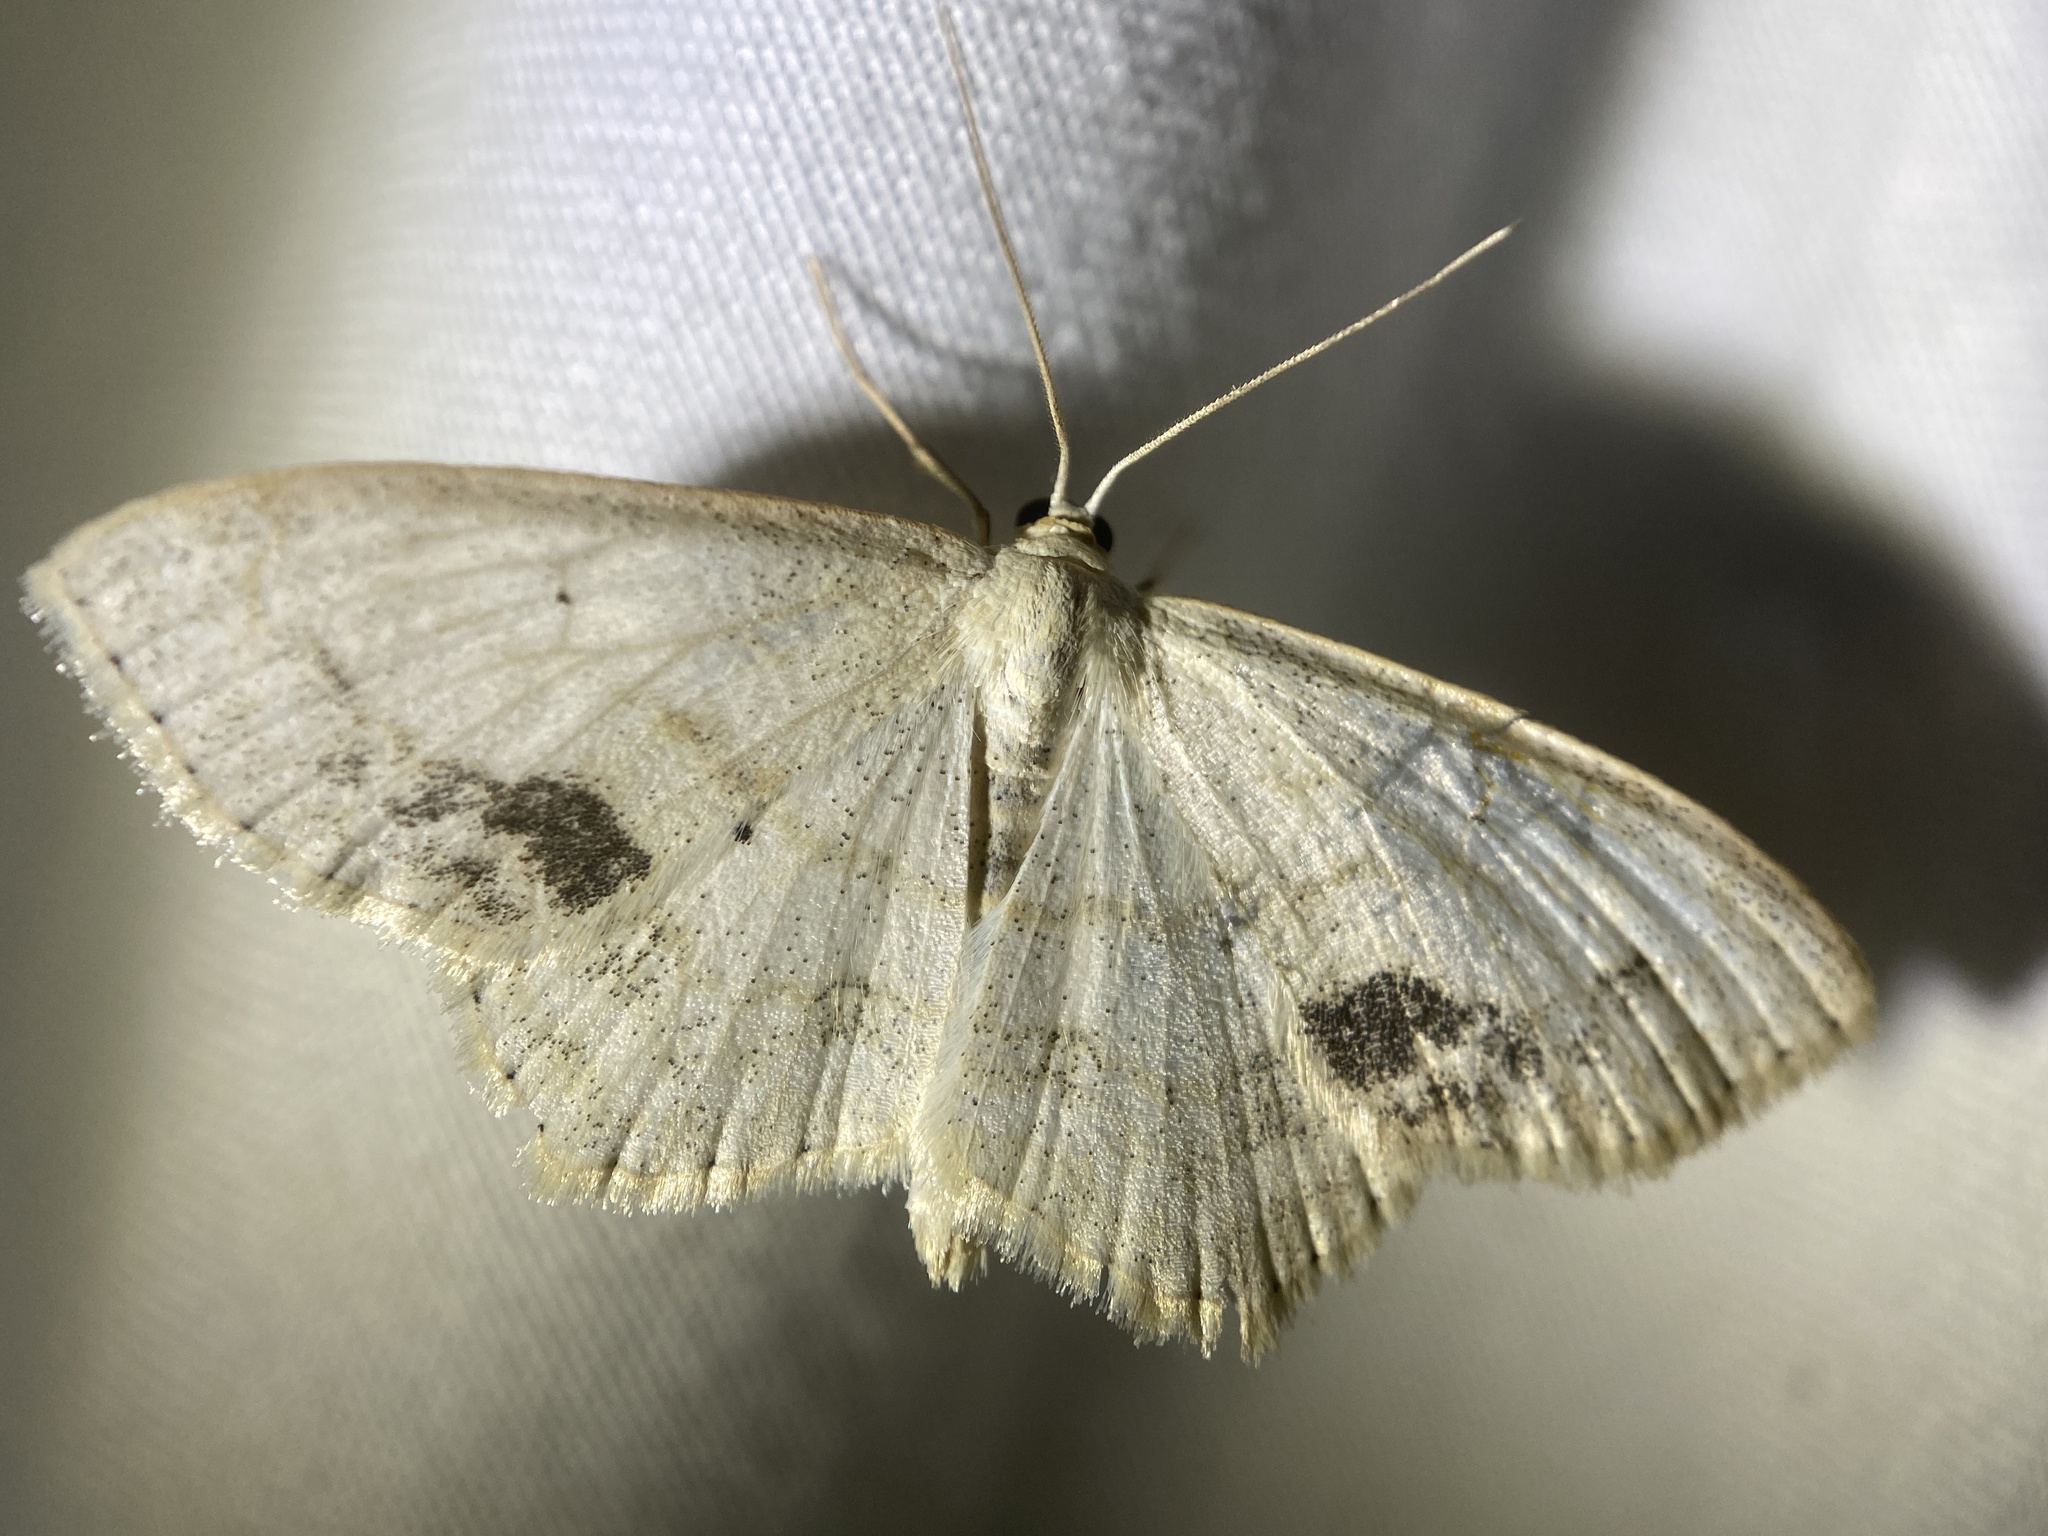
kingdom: Animalia
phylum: Arthropoda
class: Insecta
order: Lepidoptera
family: Geometridae
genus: Scopula
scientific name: Scopula limboundata
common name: Large lace border
